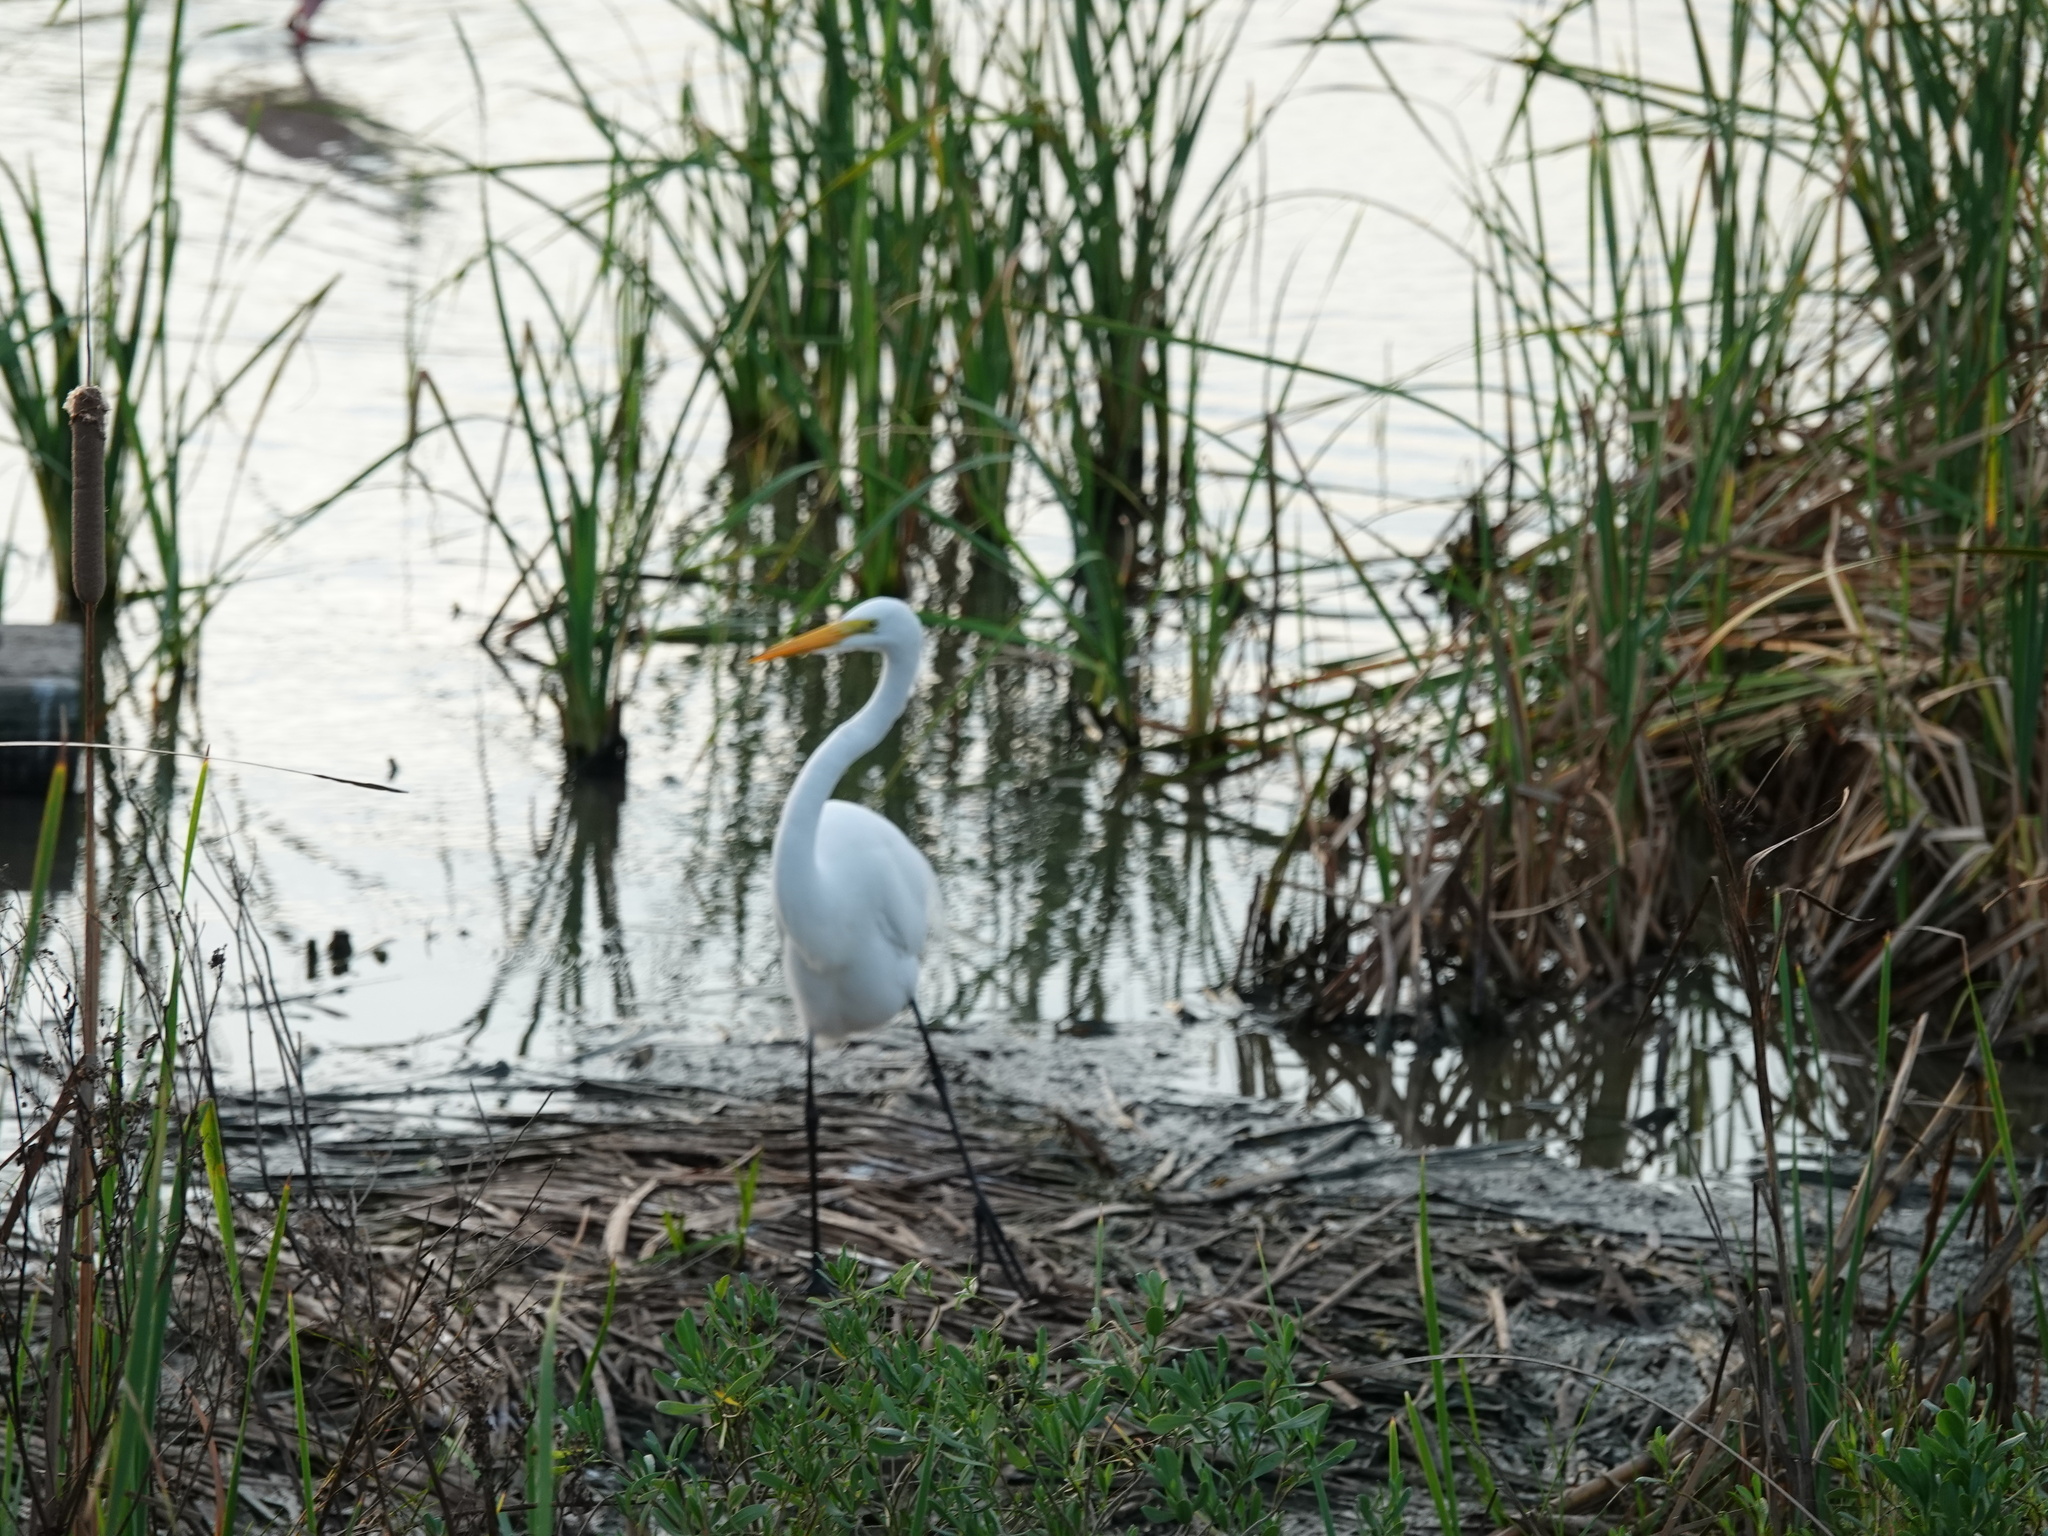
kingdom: Animalia
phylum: Chordata
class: Aves
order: Pelecaniformes
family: Ardeidae
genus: Ardea
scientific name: Ardea alba
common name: Great egret
